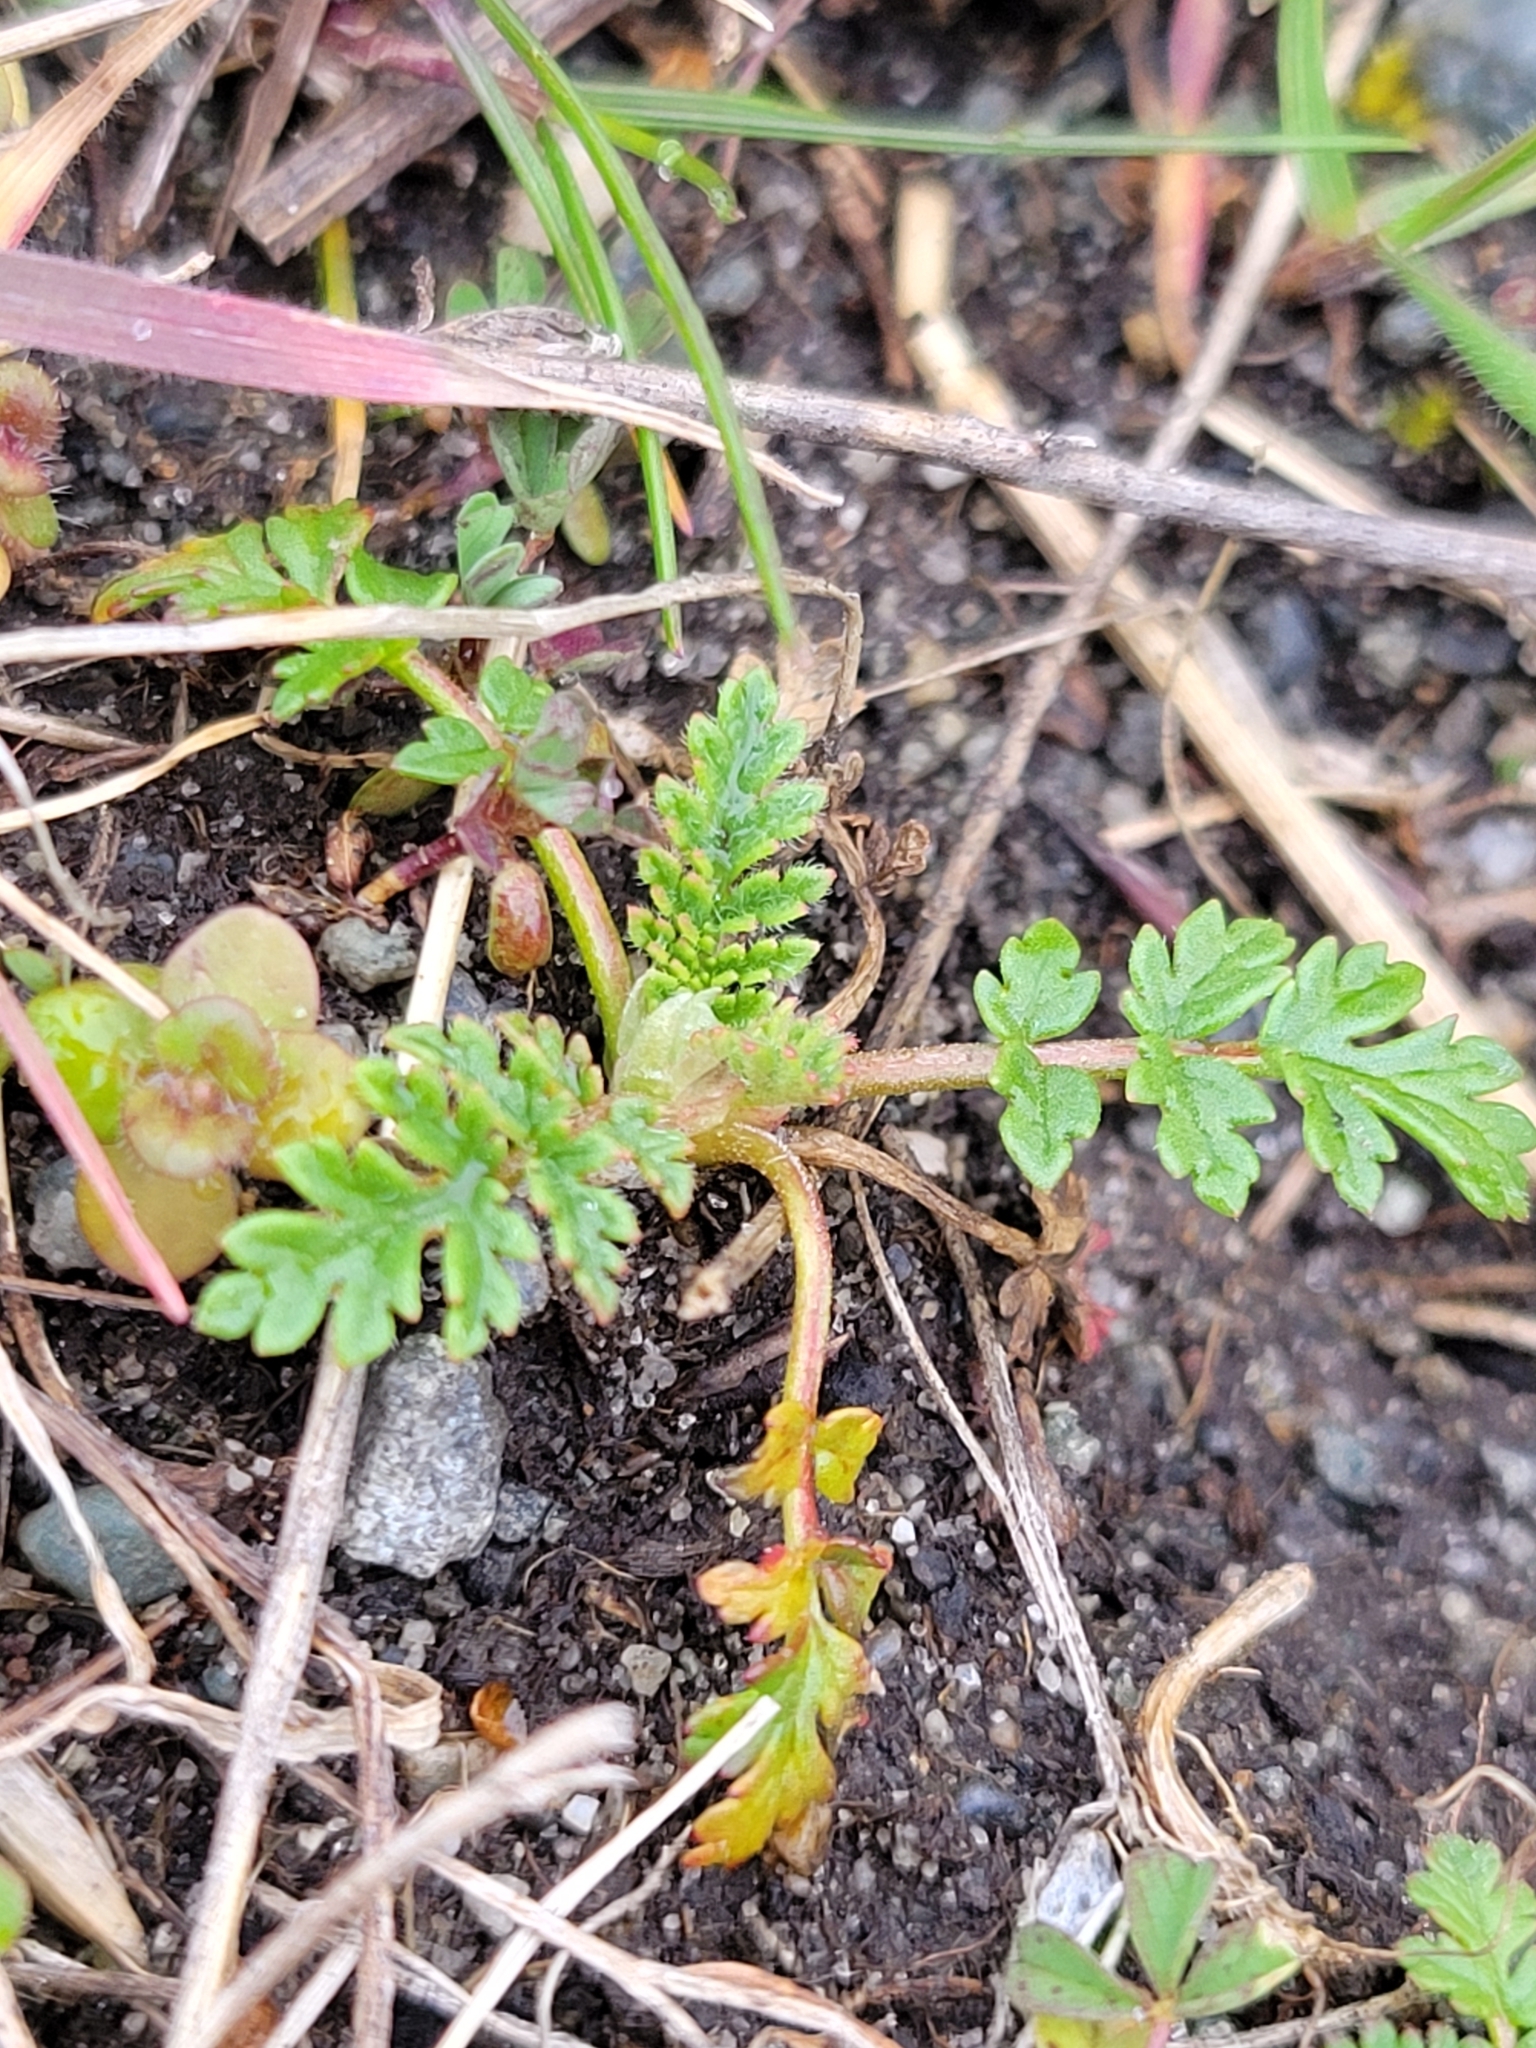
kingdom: Plantae
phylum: Tracheophyta
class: Magnoliopsida
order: Geraniales
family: Geraniaceae
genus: Erodium
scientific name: Erodium cicutarium
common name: Common stork's-bill
